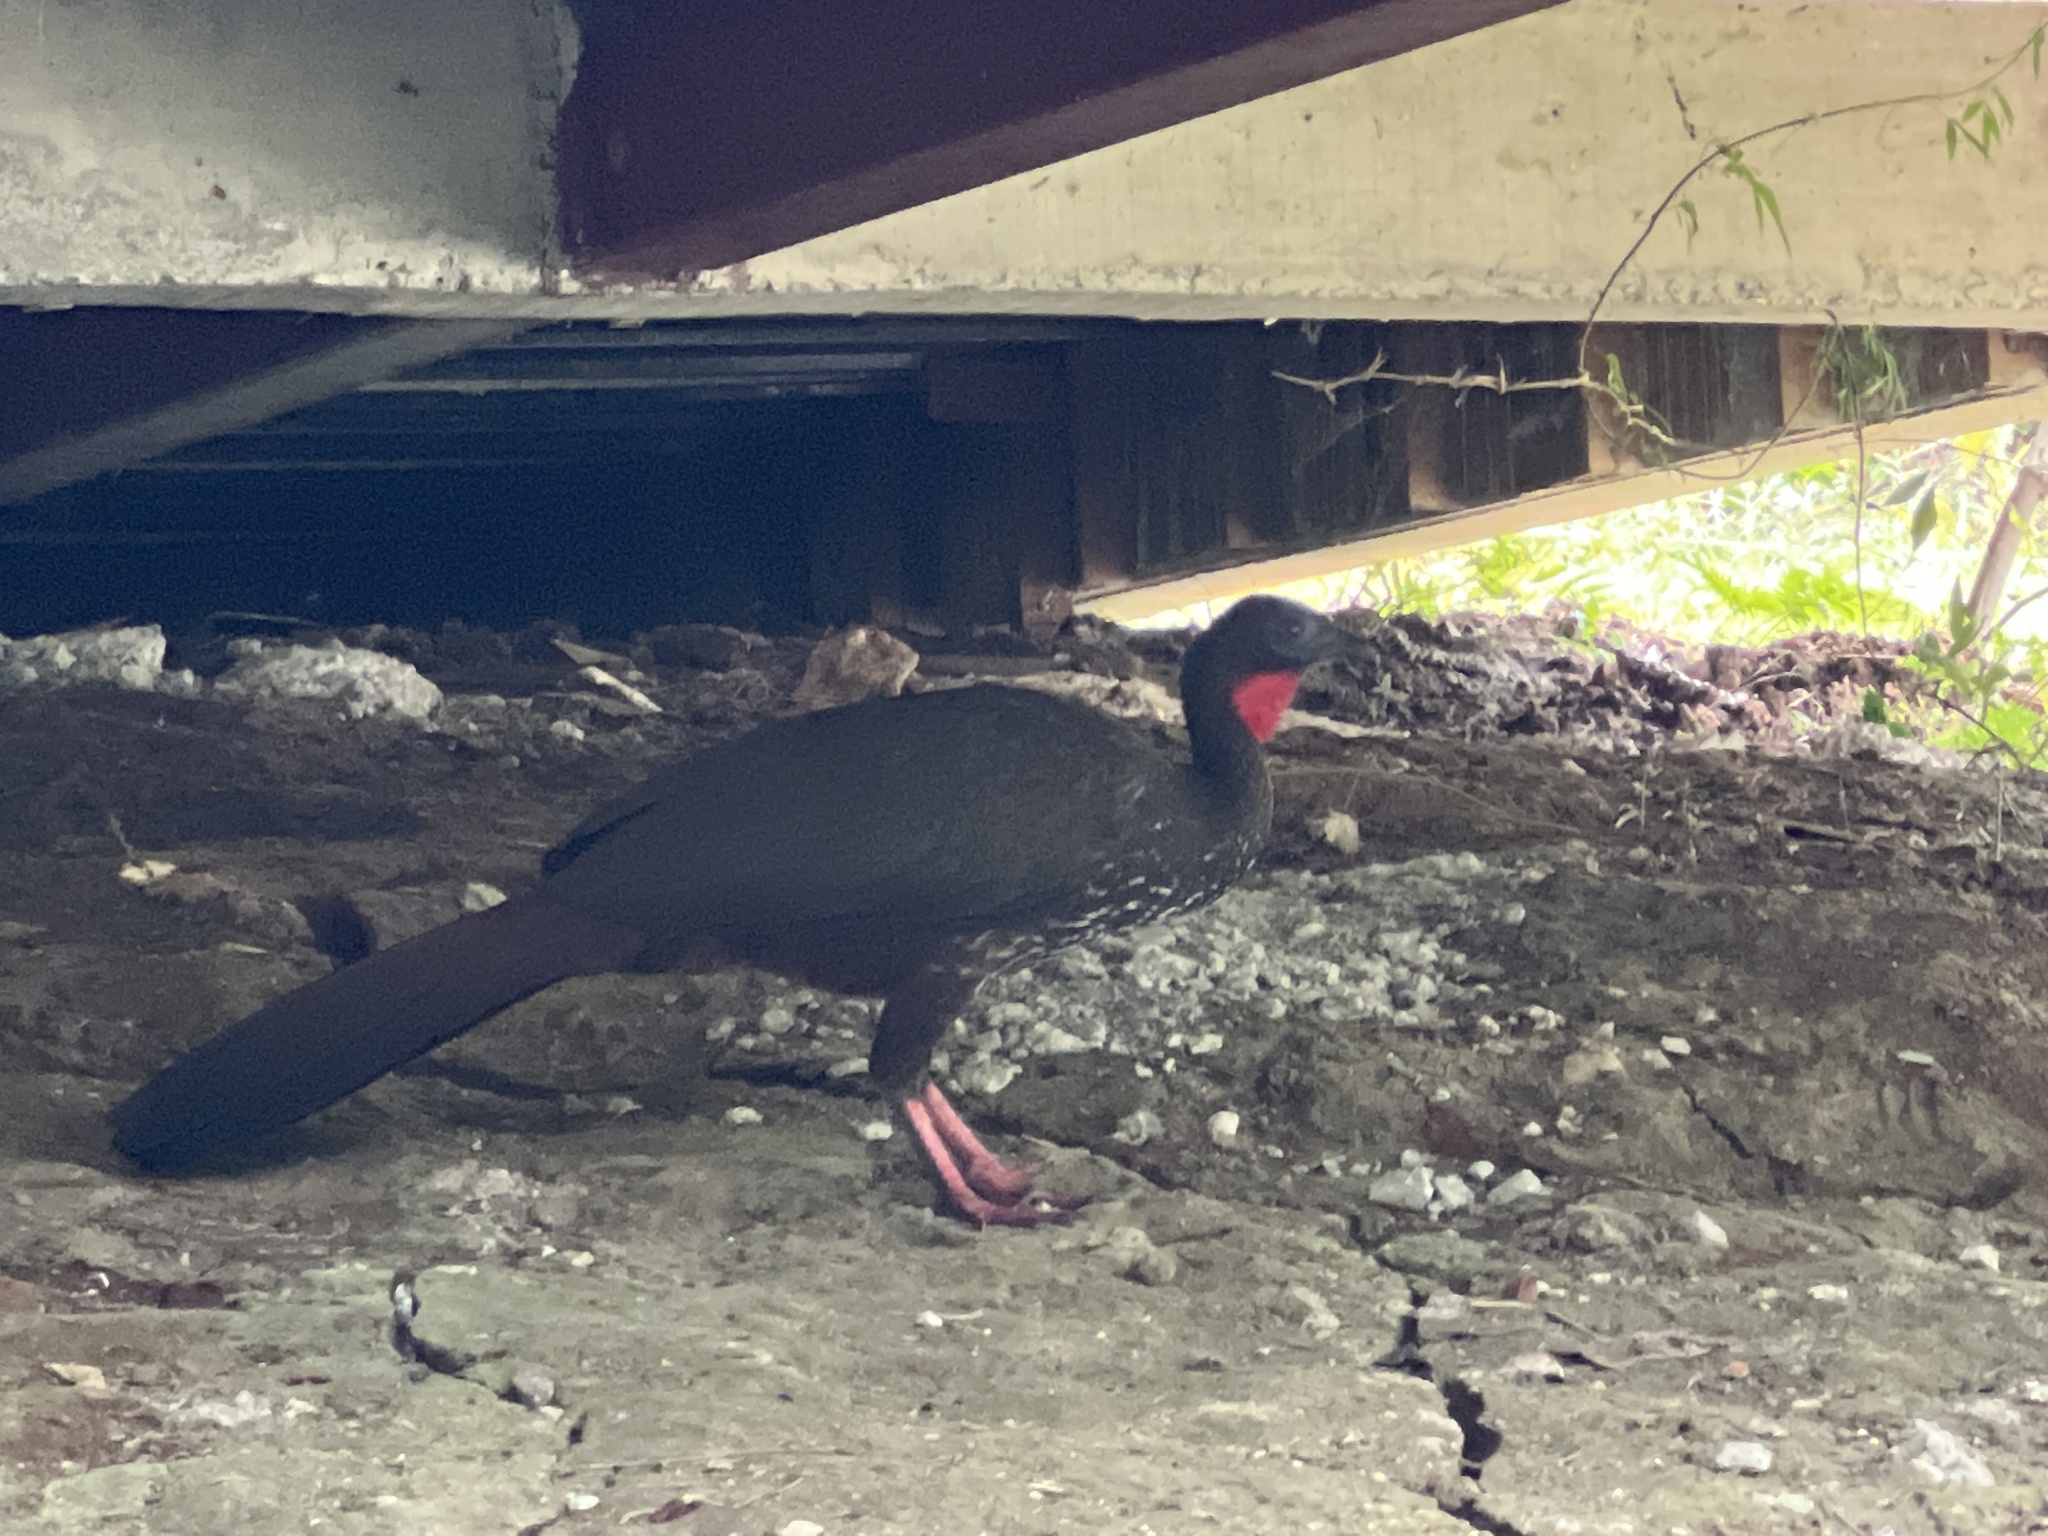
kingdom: Animalia
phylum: Chordata
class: Aves
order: Galliformes
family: Cracidae
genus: Penelope
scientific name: Penelope purpurascens
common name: Crested guan
